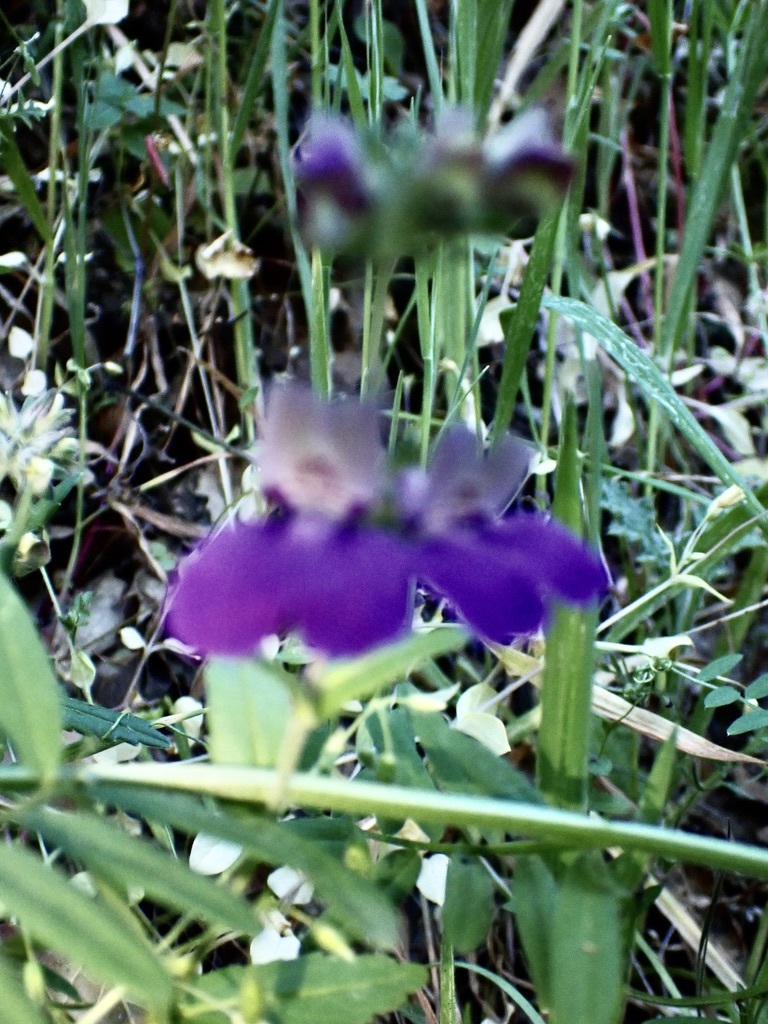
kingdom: Plantae
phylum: Tracheophyta
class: Magnoliopsida
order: Lamiales
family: Plantaginaceae
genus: Collinsia
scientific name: Collinsia heterophylla
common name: Chinese-houses
